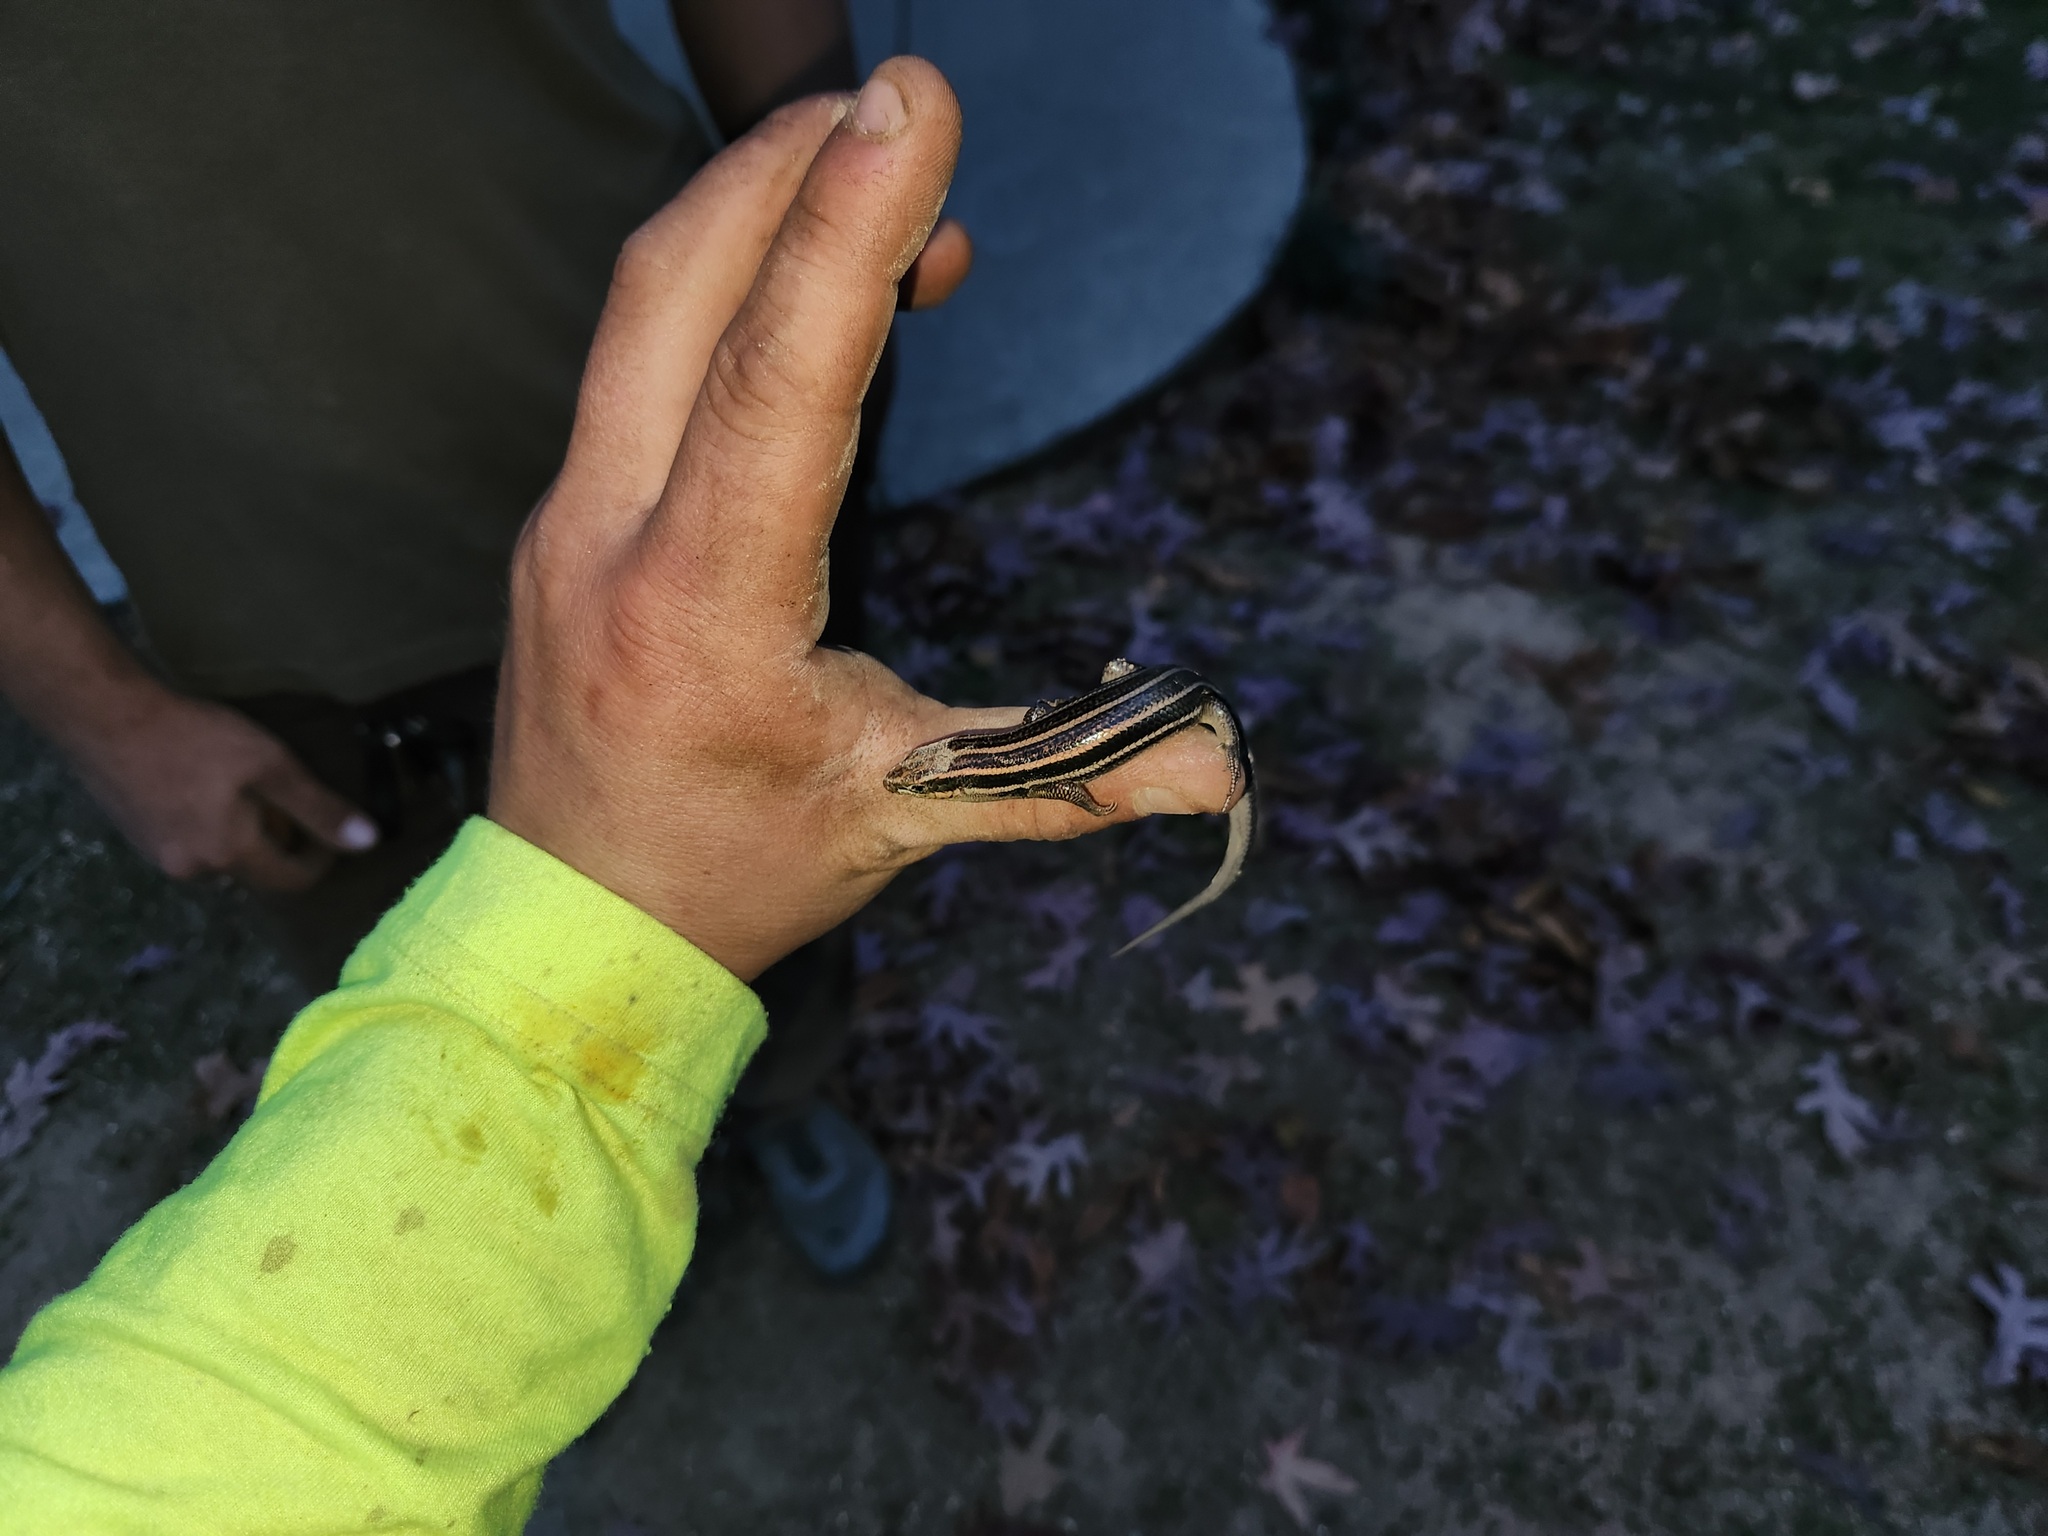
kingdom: Animalia
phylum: Chordata
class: Squamata
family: Scincidae
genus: Plestiodon
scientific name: Plestiodon fasciatus
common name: Five-lined skink
